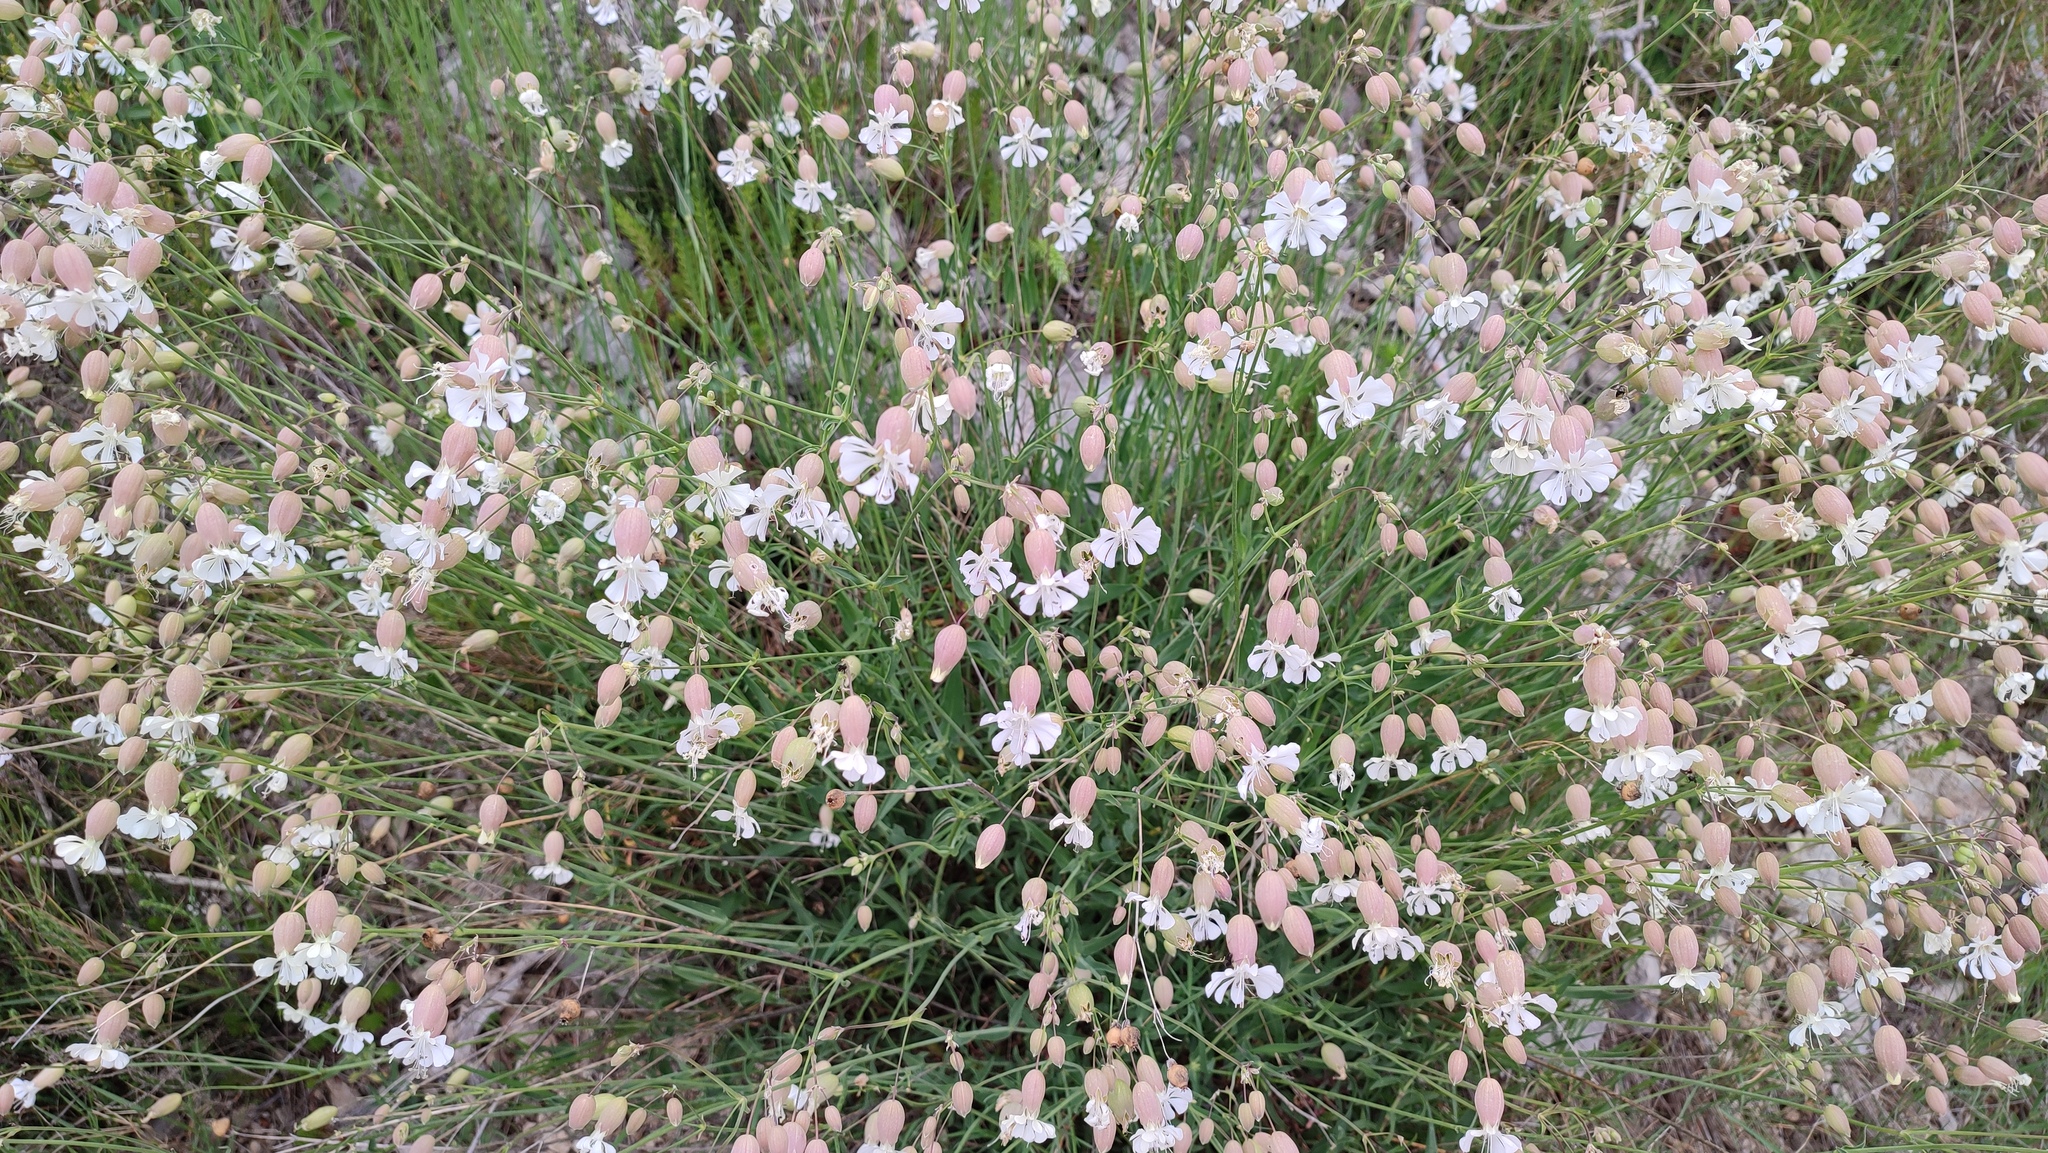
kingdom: Plantae
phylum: Tracheophyta
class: Magnoliopsida
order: Caryophyllales
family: Caryophyllaceae
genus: Silene
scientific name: Silene vulgaris
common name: Bladder campion
